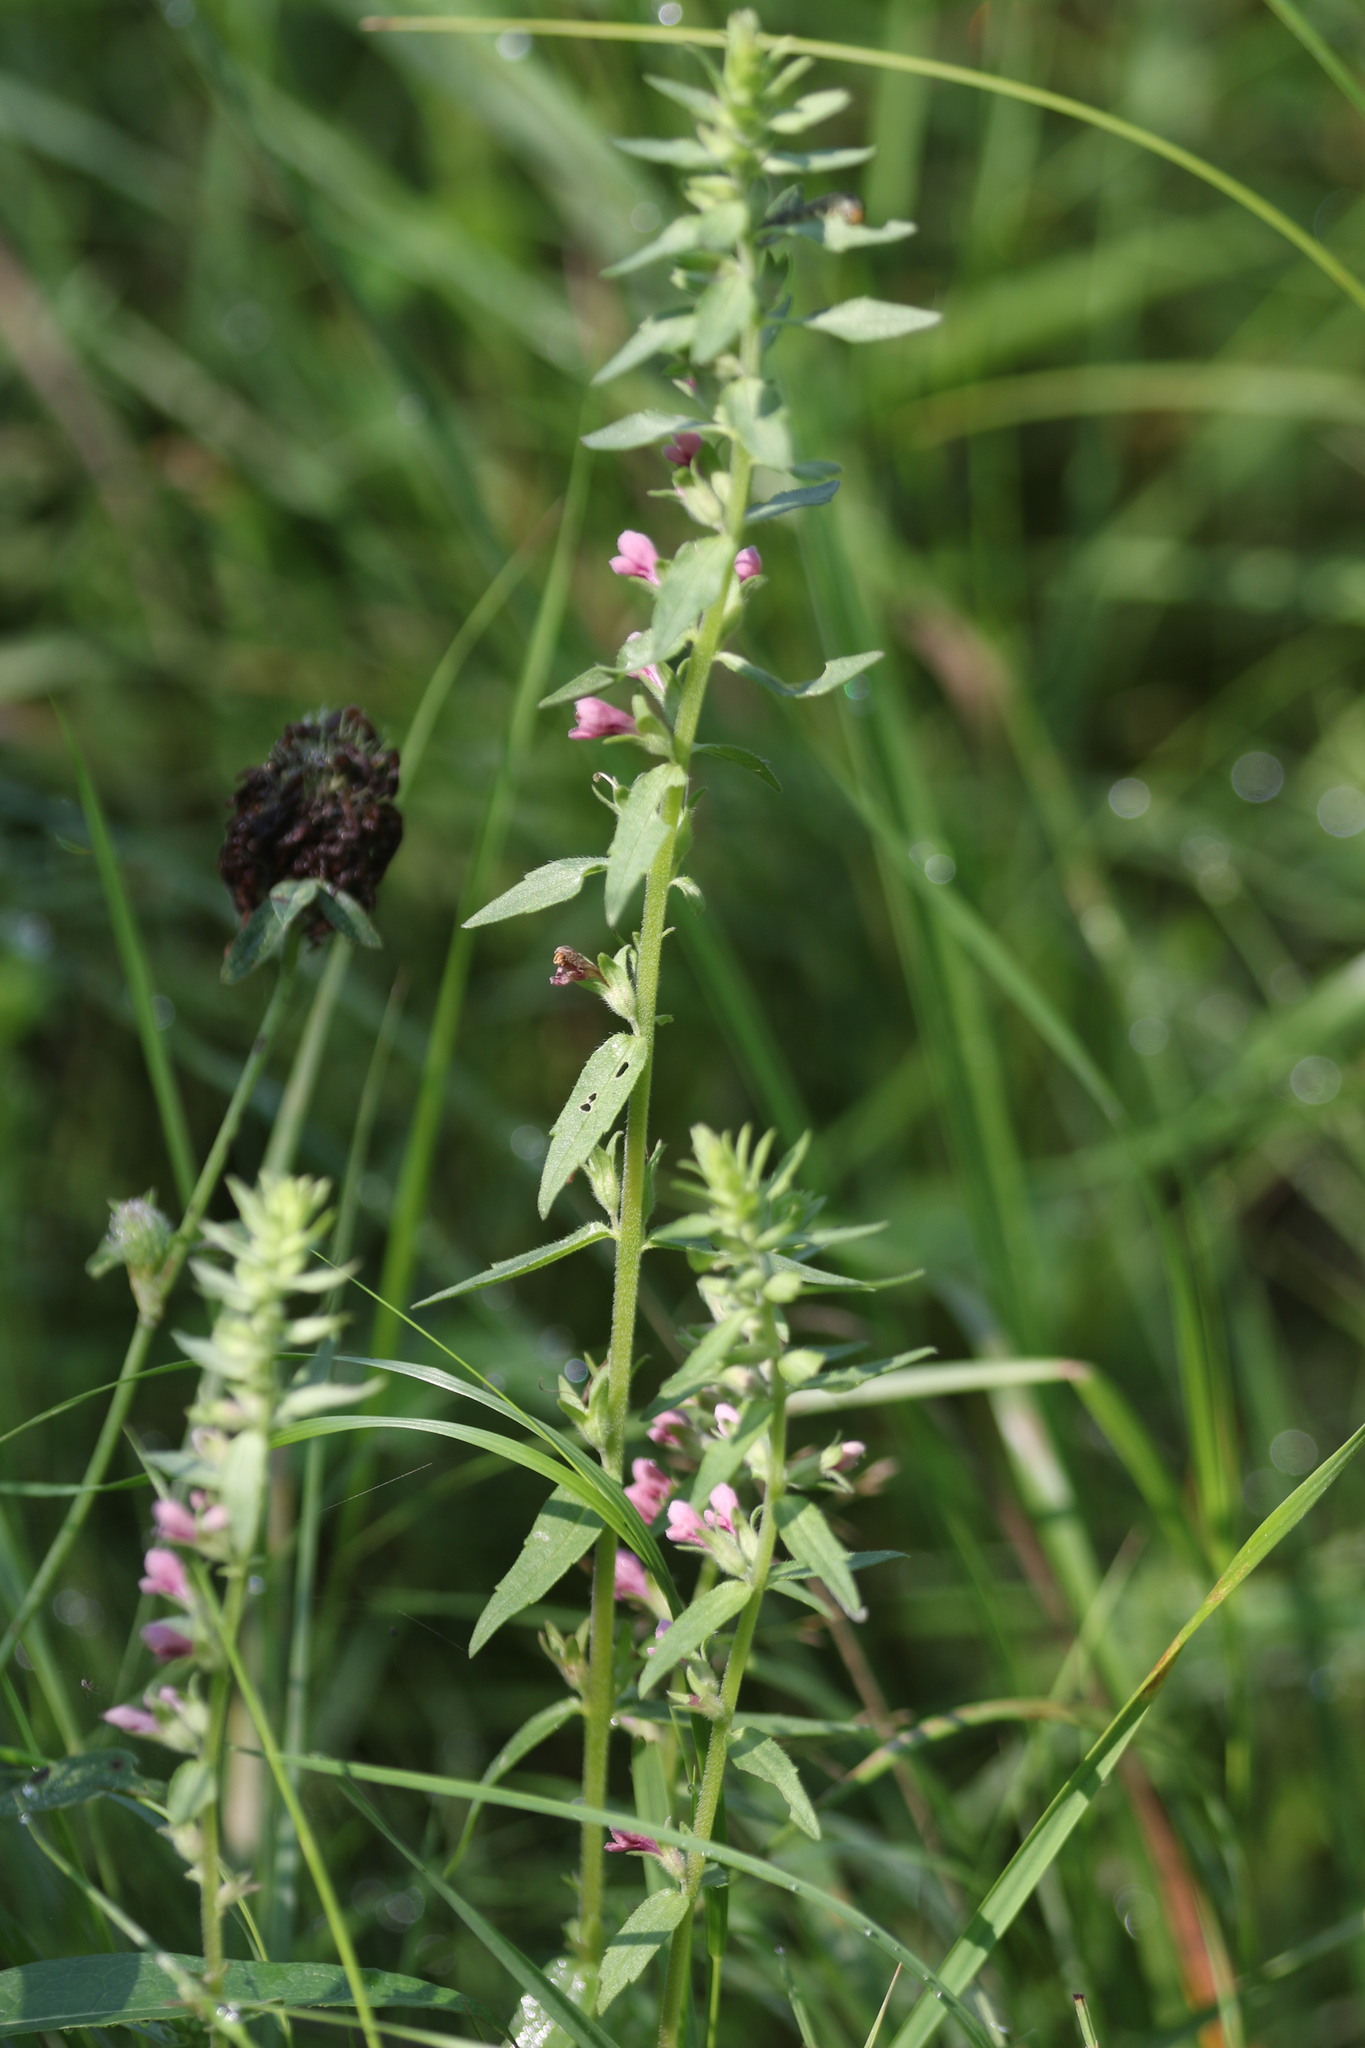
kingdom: Plantae
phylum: Tracheophyta
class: Magnoliopsida
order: Lamiales
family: Orobanchaceae
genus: Odontites
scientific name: Odontites vulgaris
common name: Broomrape
